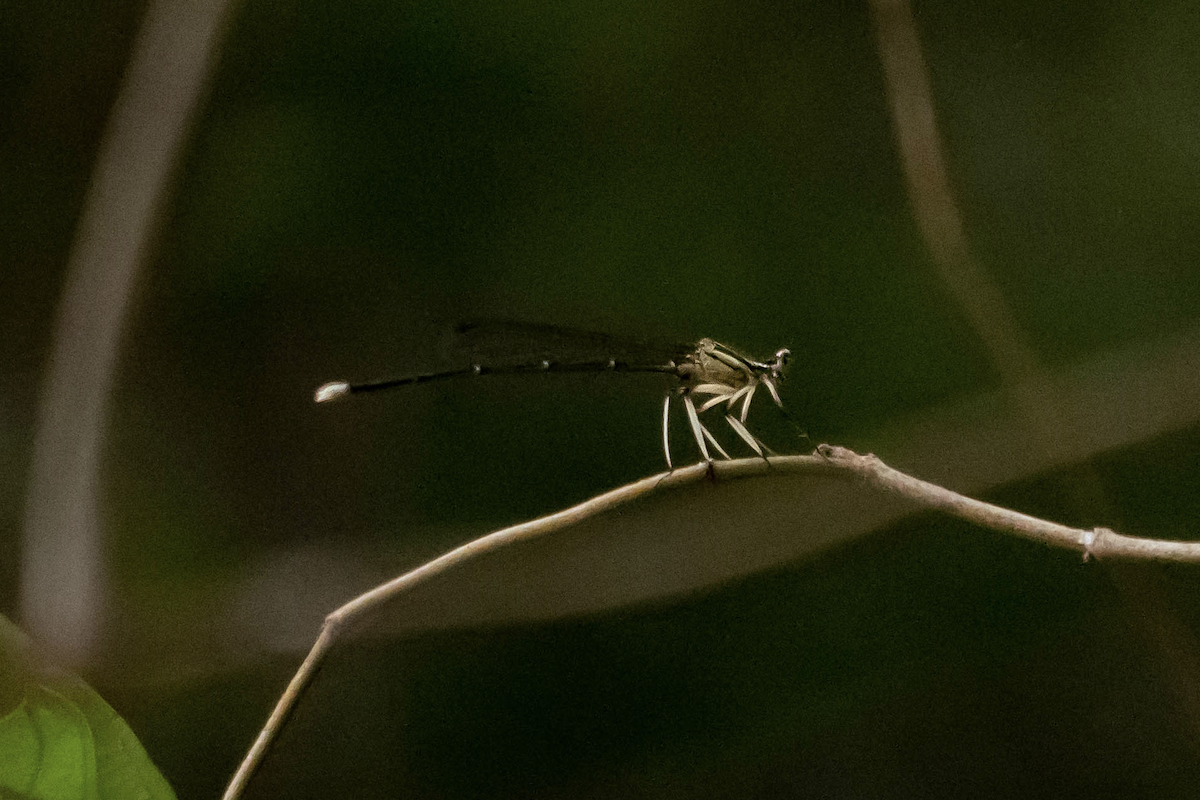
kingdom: Animalia
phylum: Arthropoda
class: Insecta
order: Odonata
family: Platycnemididae
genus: Pseudocopera
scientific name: Pseudocopera ciliata
